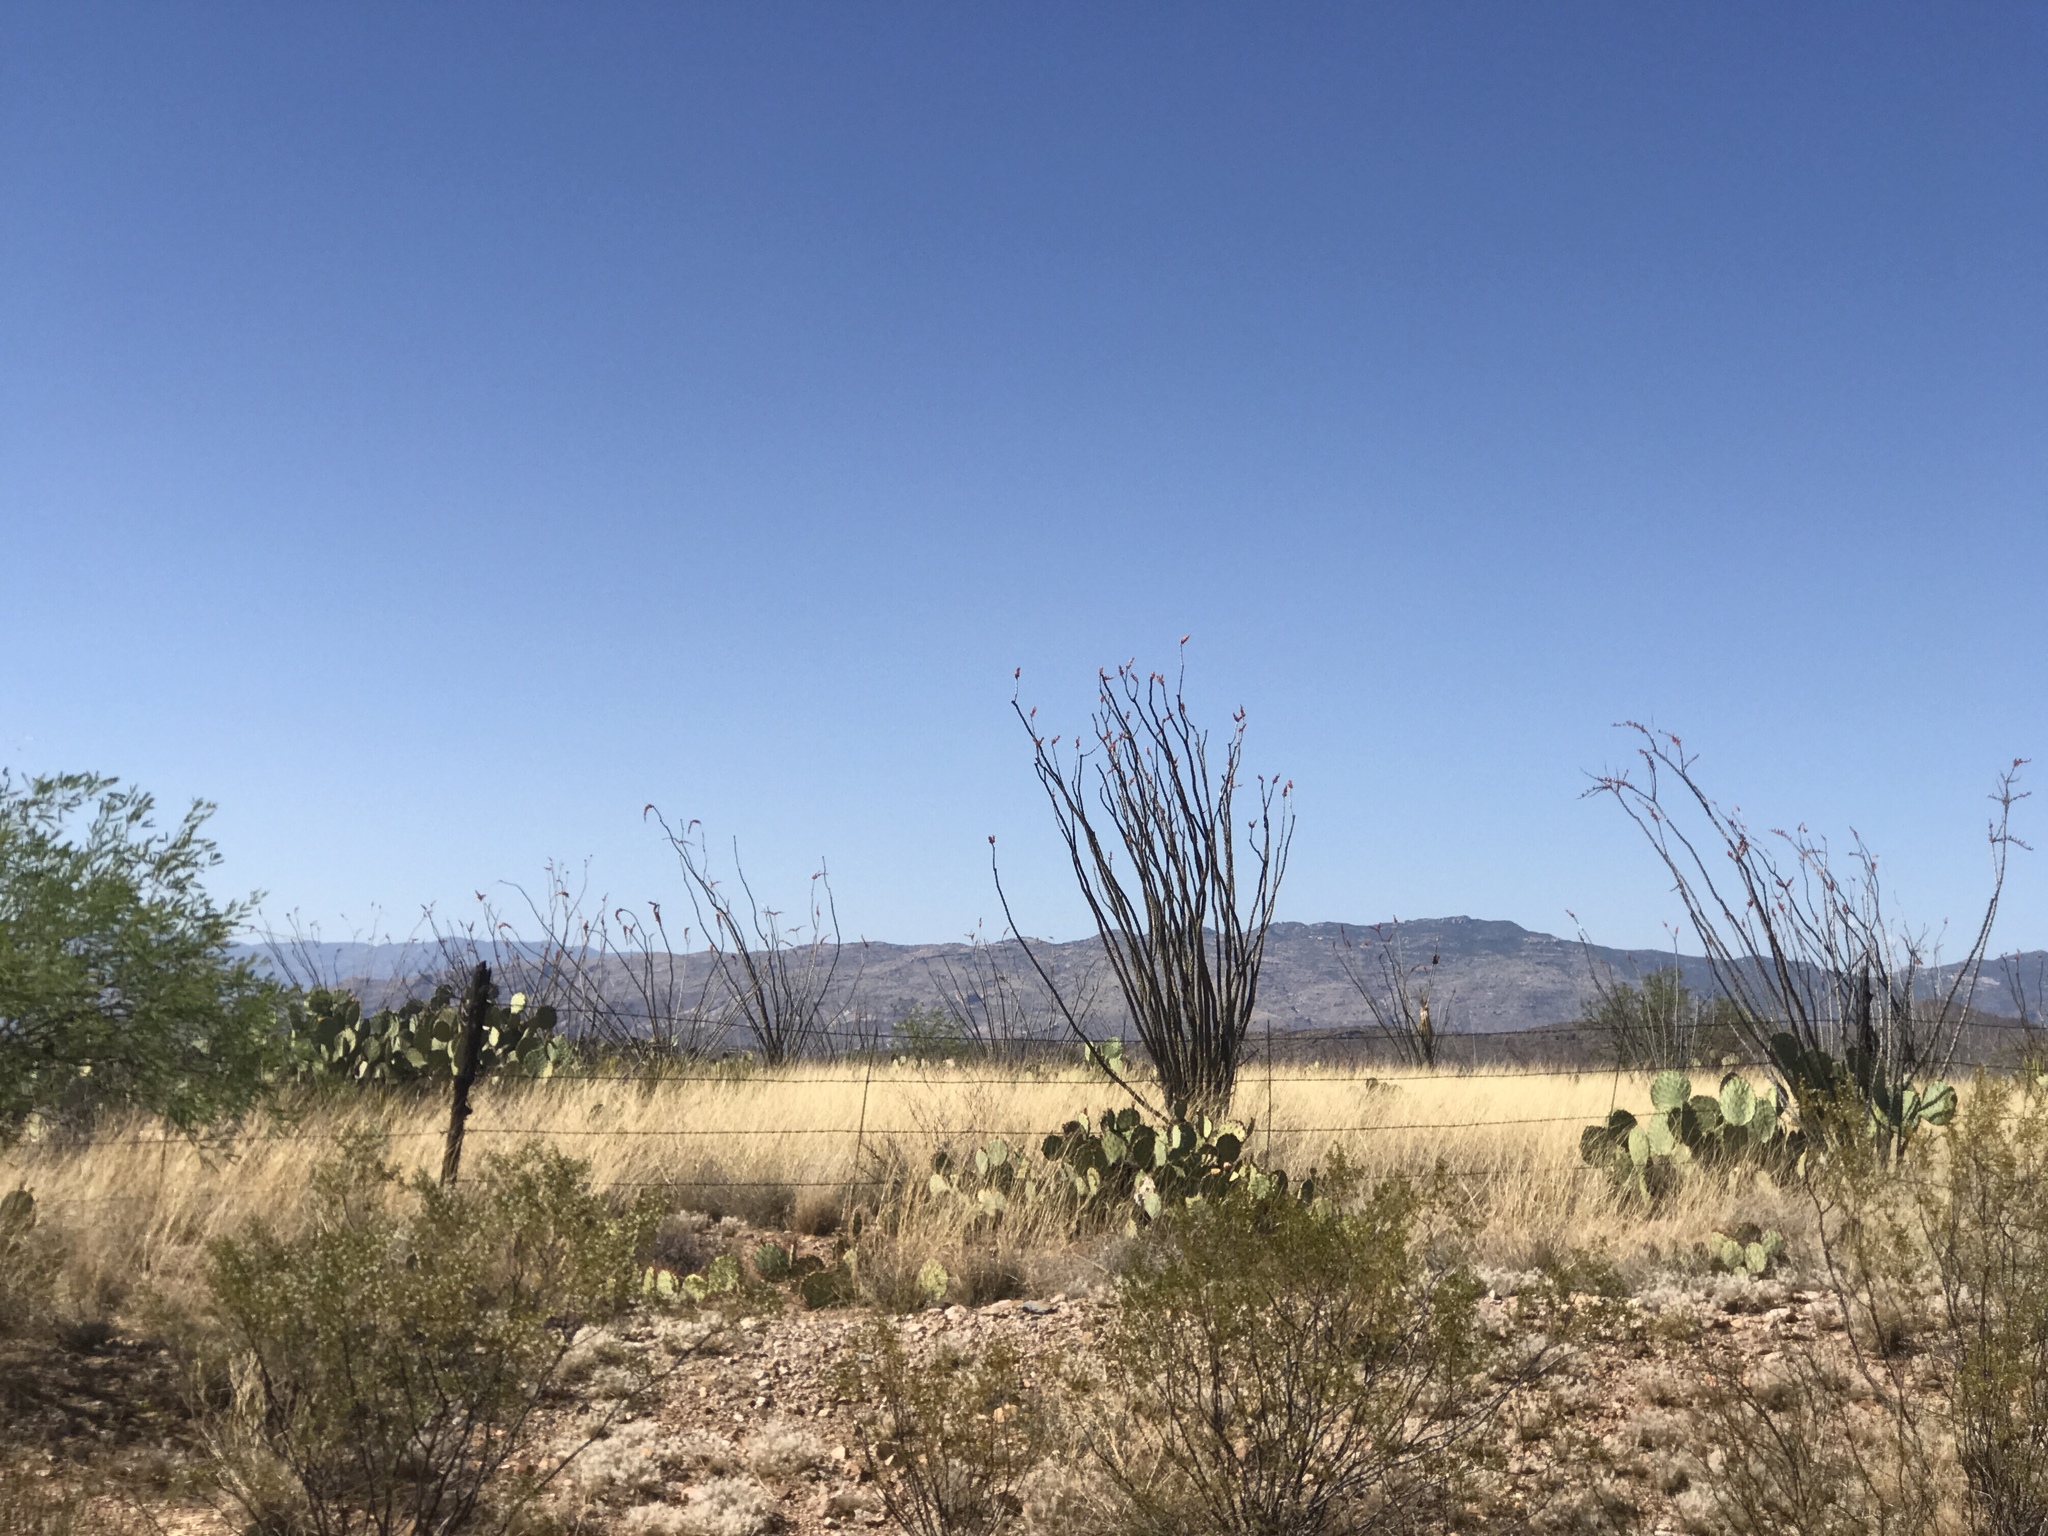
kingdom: Plantae
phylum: Tracheophyta
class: Magnoliopsida
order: Ericales
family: Fouquieriaceae
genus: Fouquieria
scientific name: Fouquieria splendens
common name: Vine-cactus
